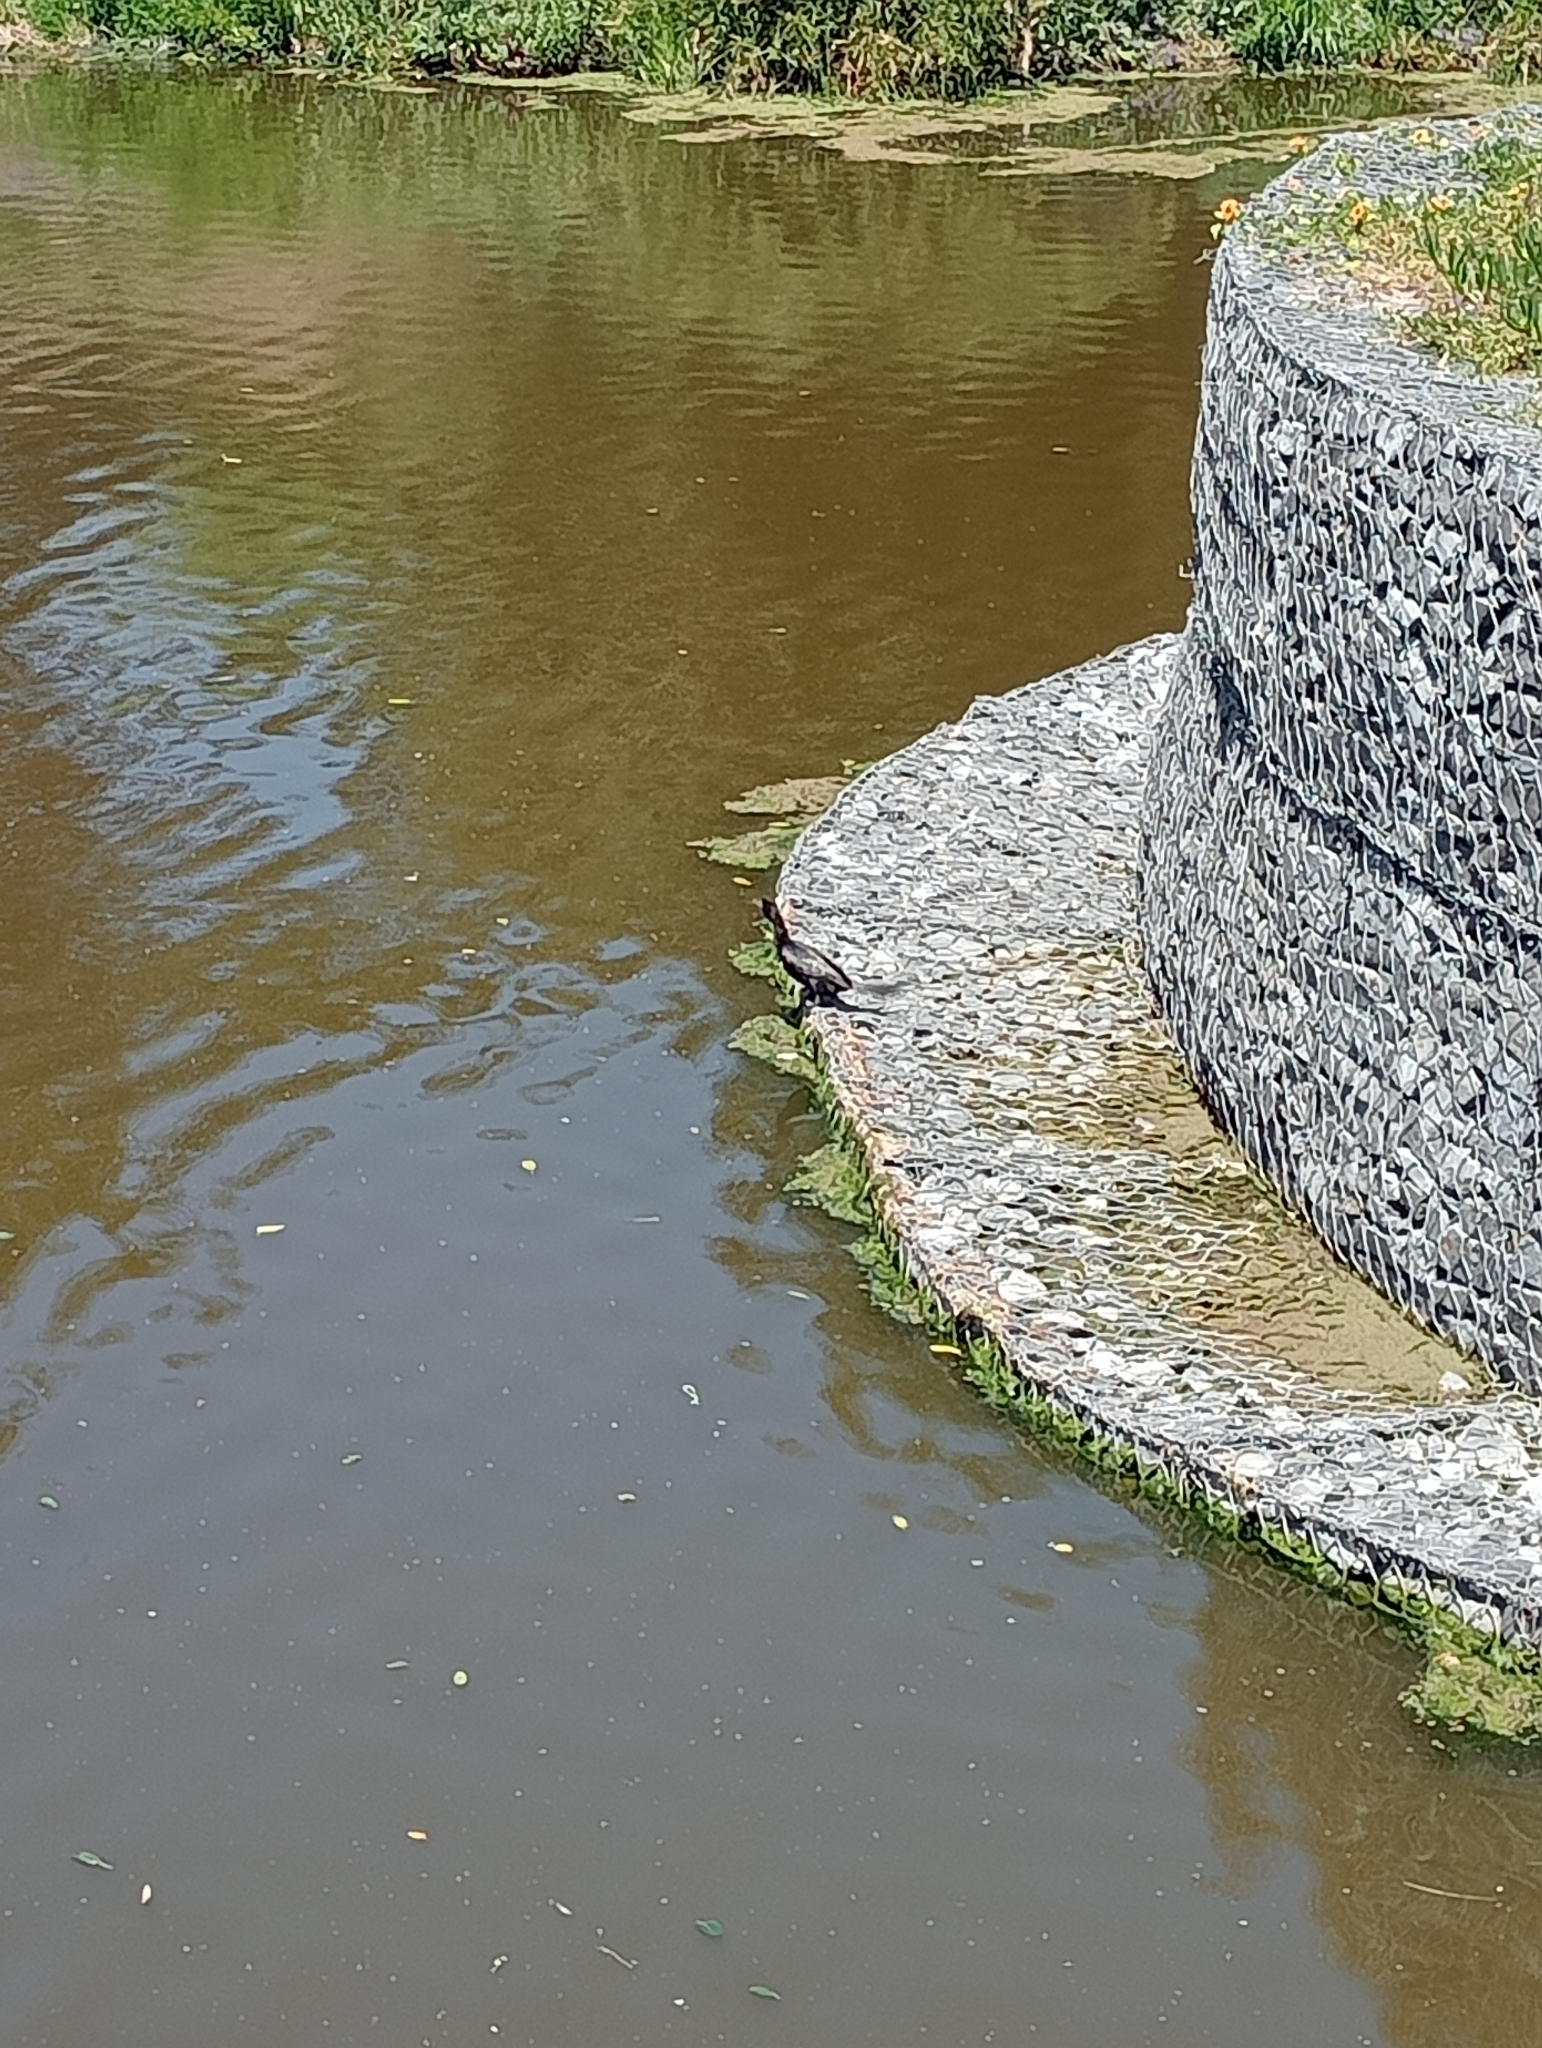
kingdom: Animalia
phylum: Chordata
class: Aves
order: Suliformes
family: Phalacrocoracidae
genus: Microcarbo
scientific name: Microcarbo africanus
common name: Long-tailed cormorant
